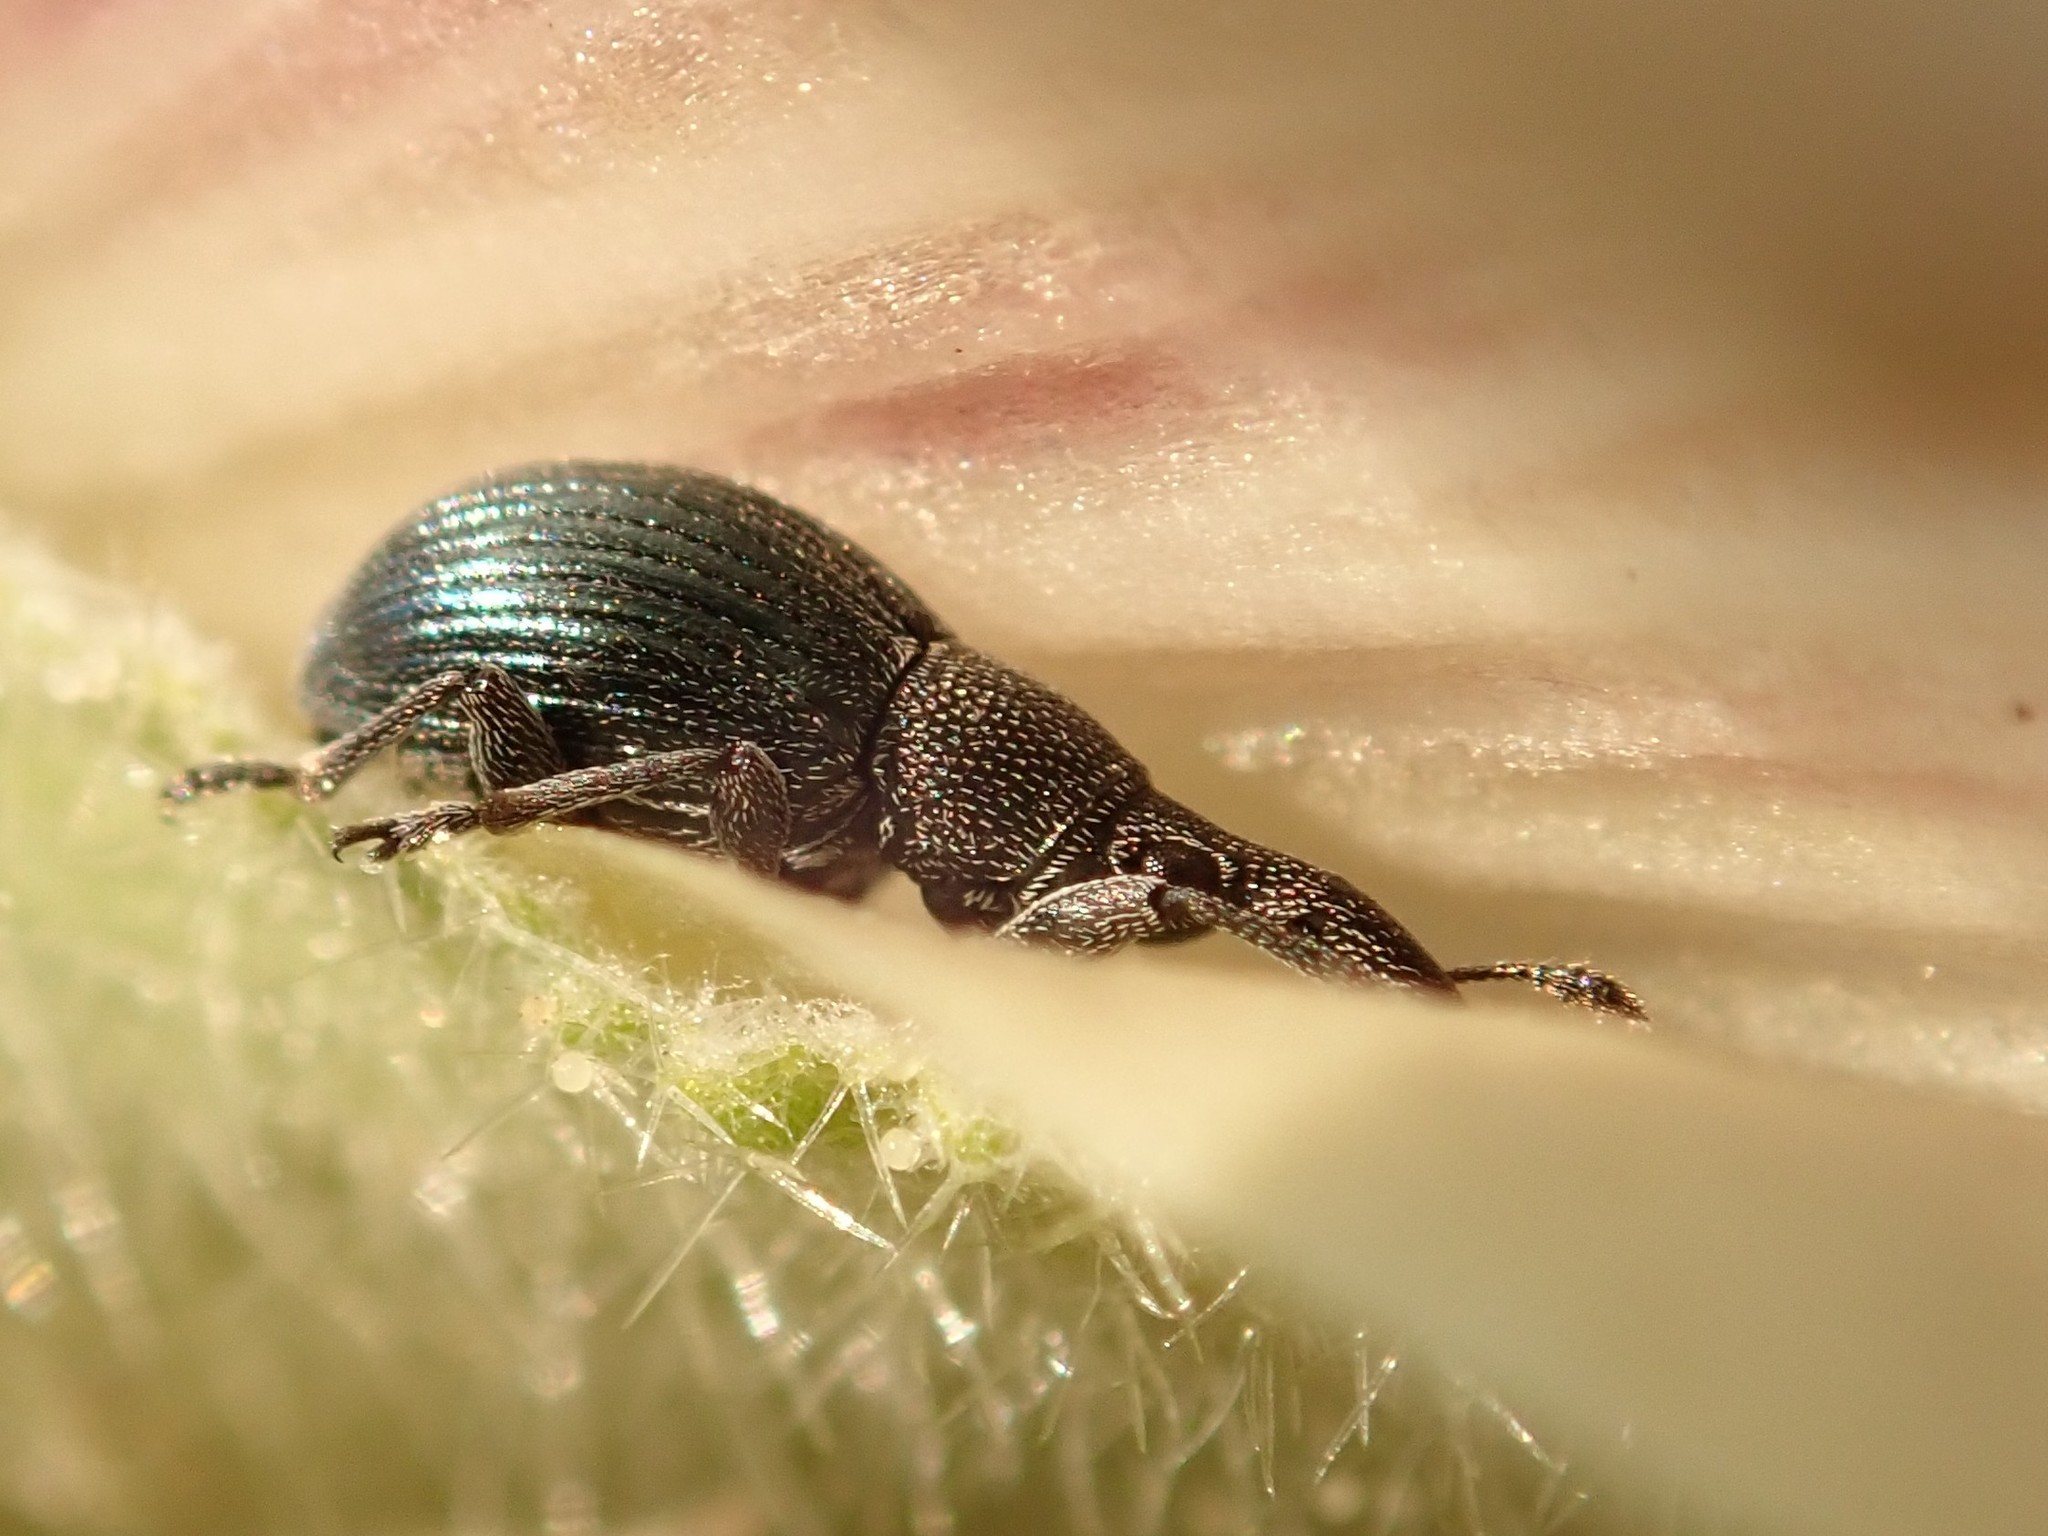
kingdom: Animalia
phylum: Arthropoda
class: Insecta
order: Coleoptera
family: Apionidae
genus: Aspidapion
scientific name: Aspidapion validum
